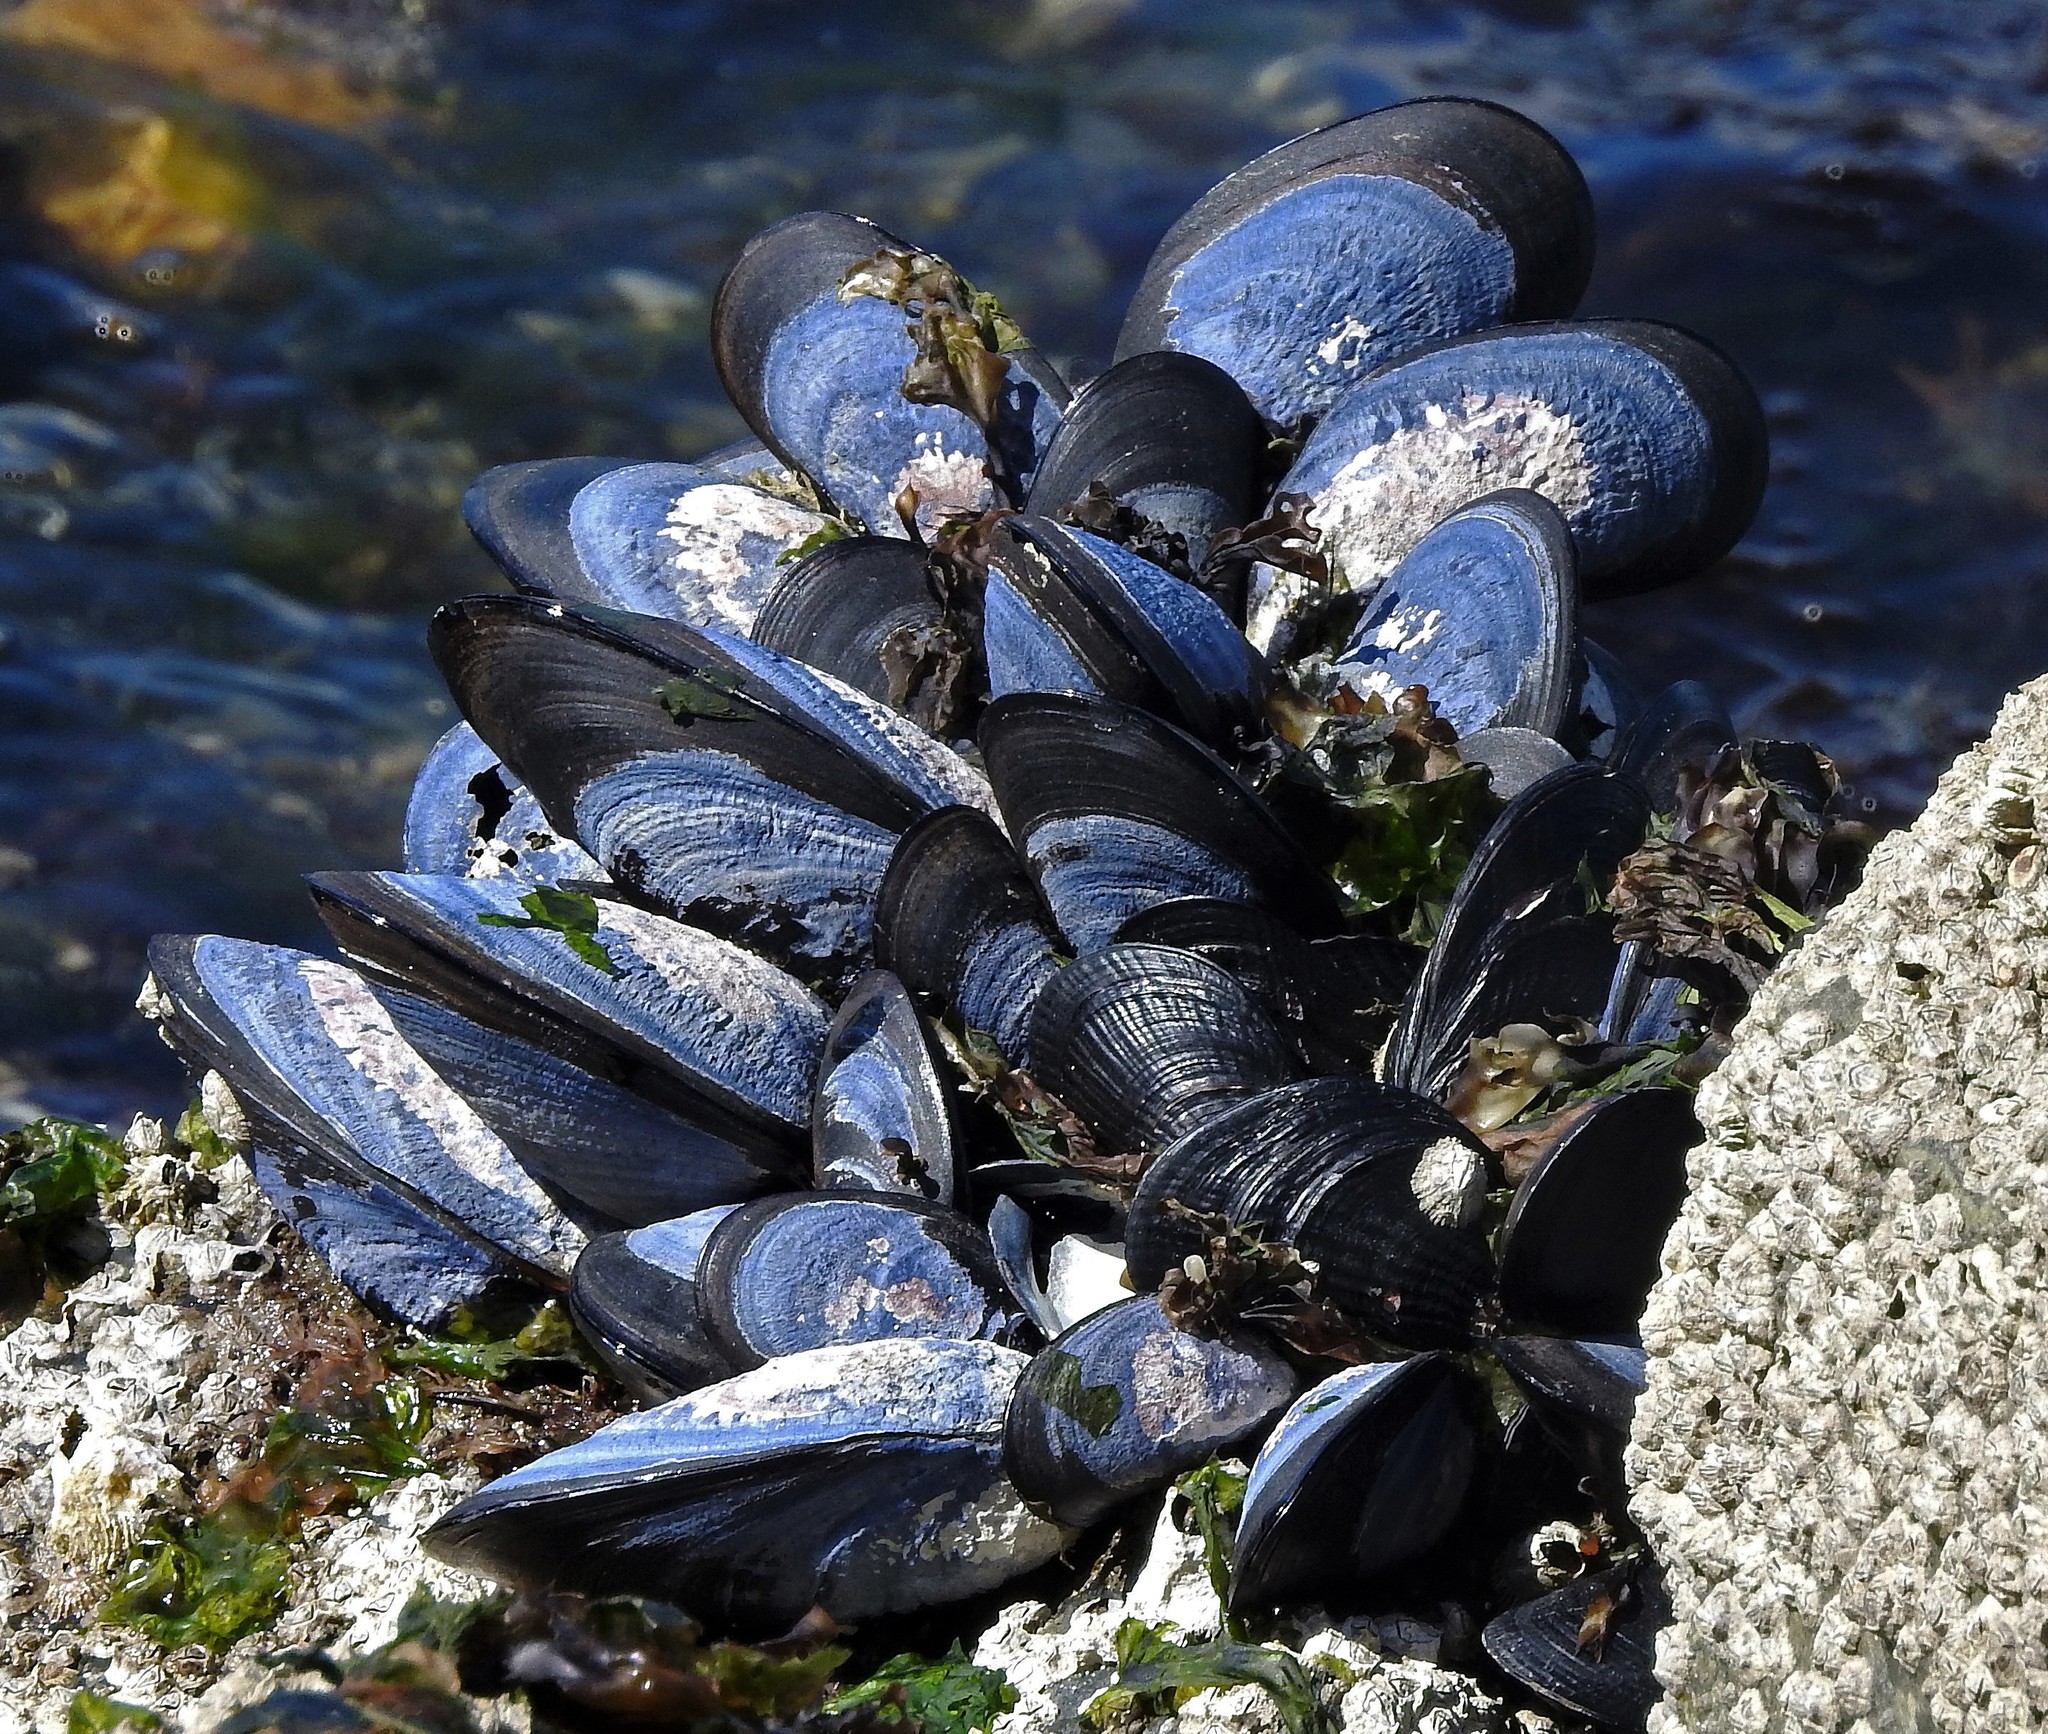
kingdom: Animalia
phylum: Mollusca
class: Bivalvia
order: Mytilida
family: Mytilidae
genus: Mytilus
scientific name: Mytilus chilensis
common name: Chilean mussel
